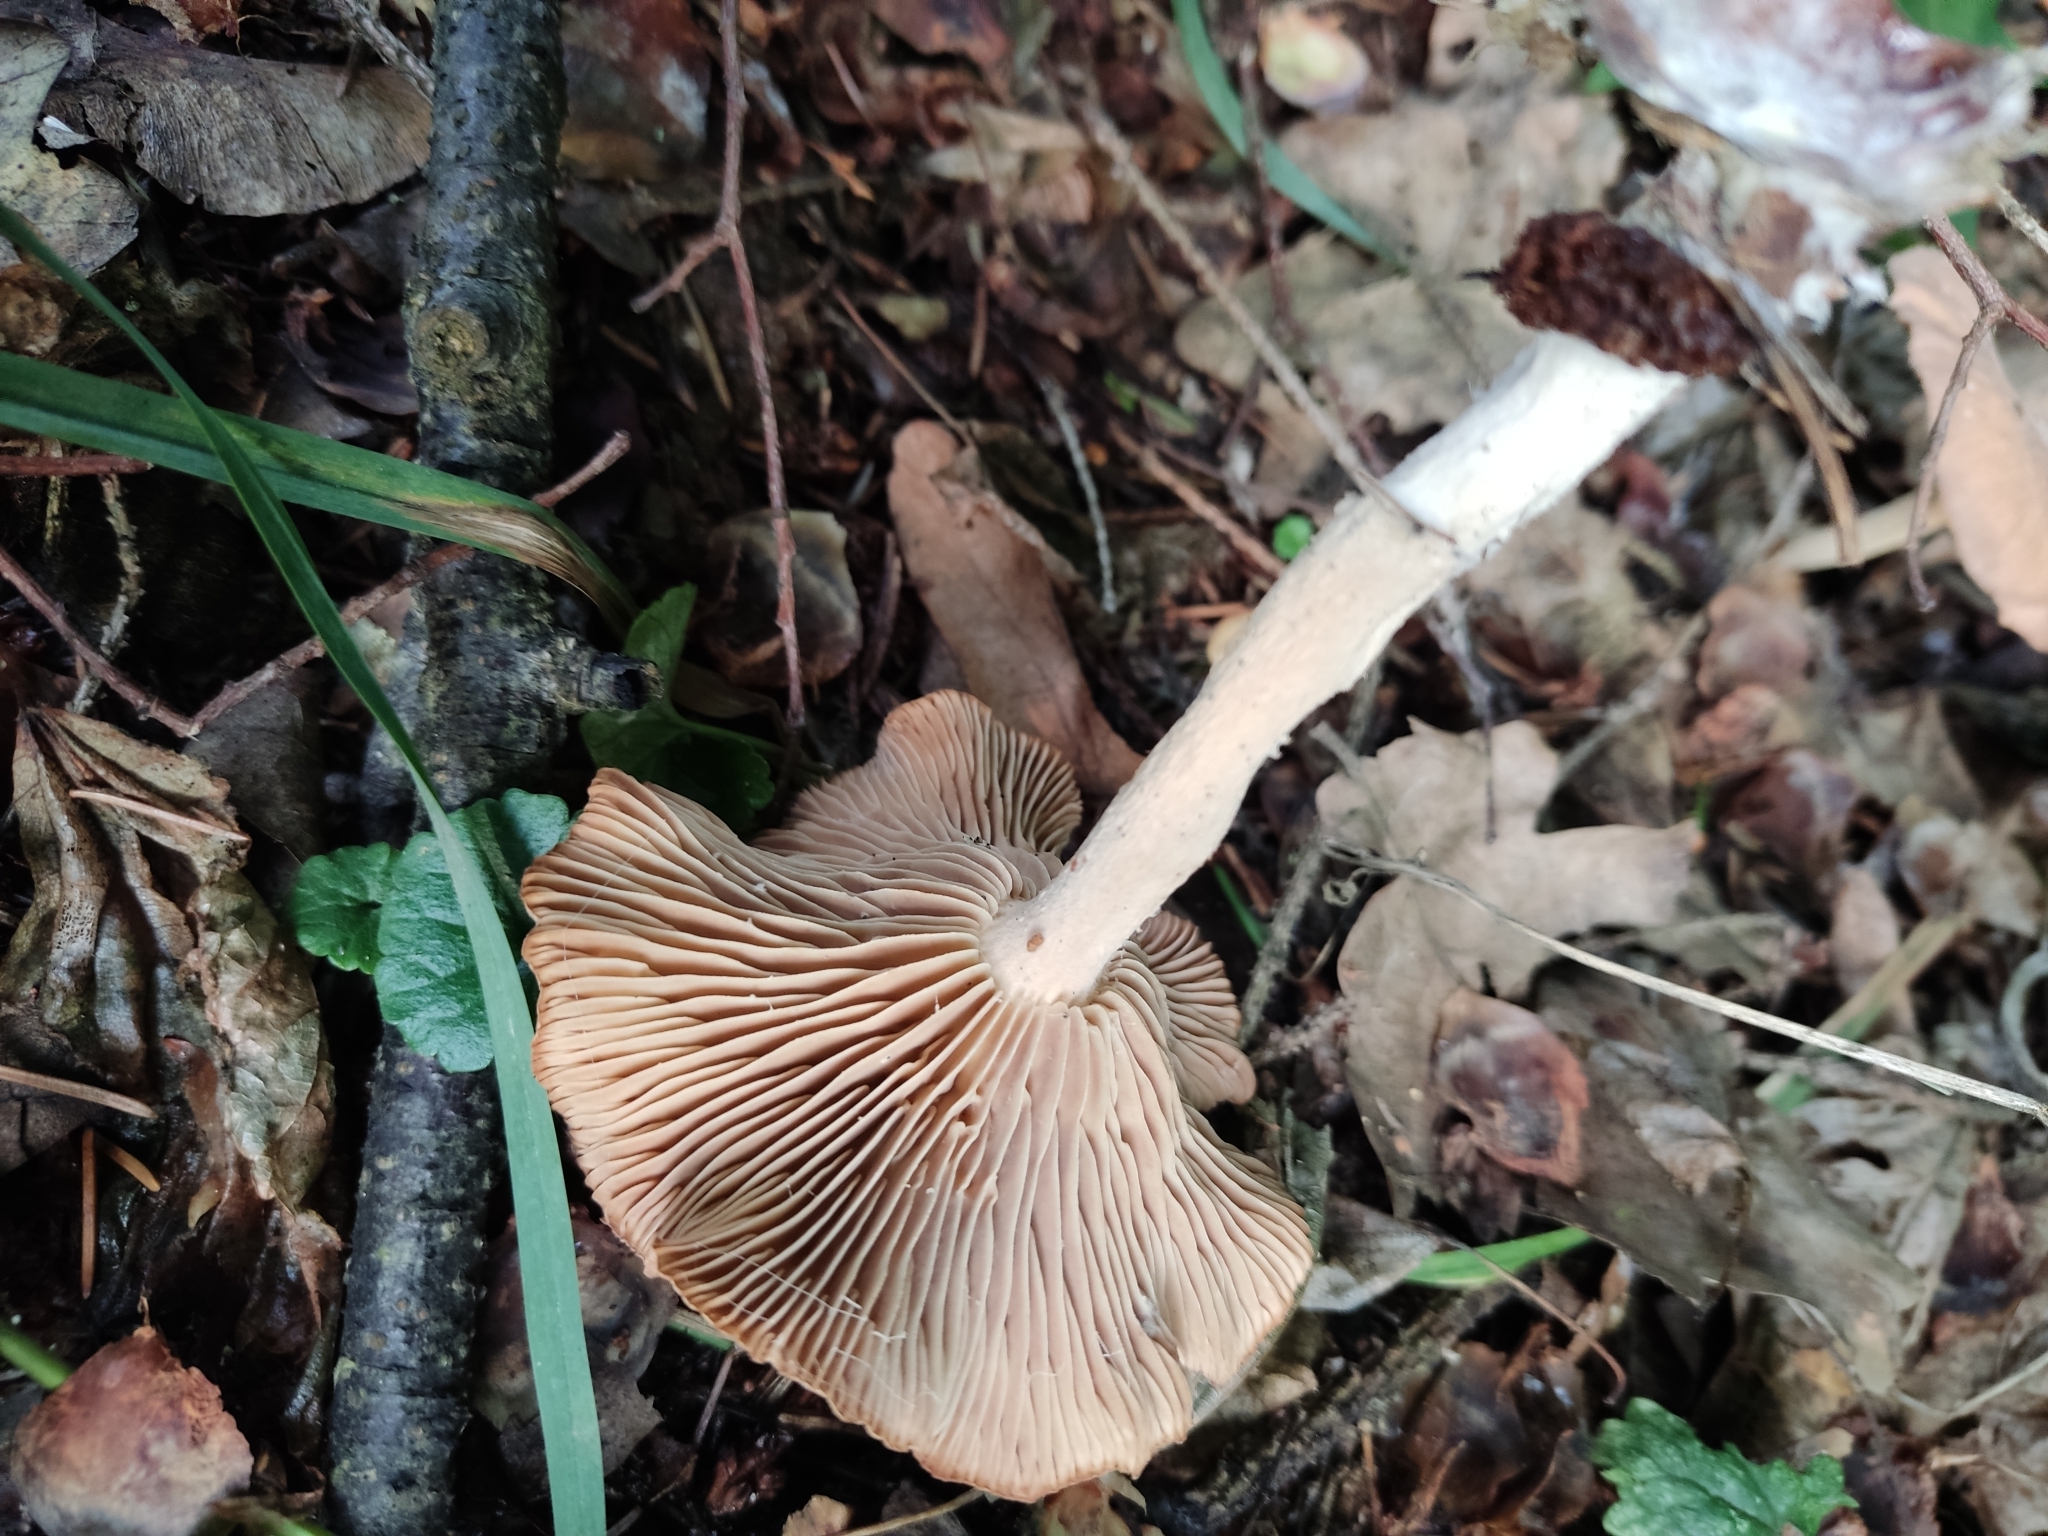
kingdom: Fungi
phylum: Basidiomycota
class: Agaricomycetes
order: Agaricales
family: Omphalotaceae
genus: Collybiopsis
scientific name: Collybiopsis peronata
